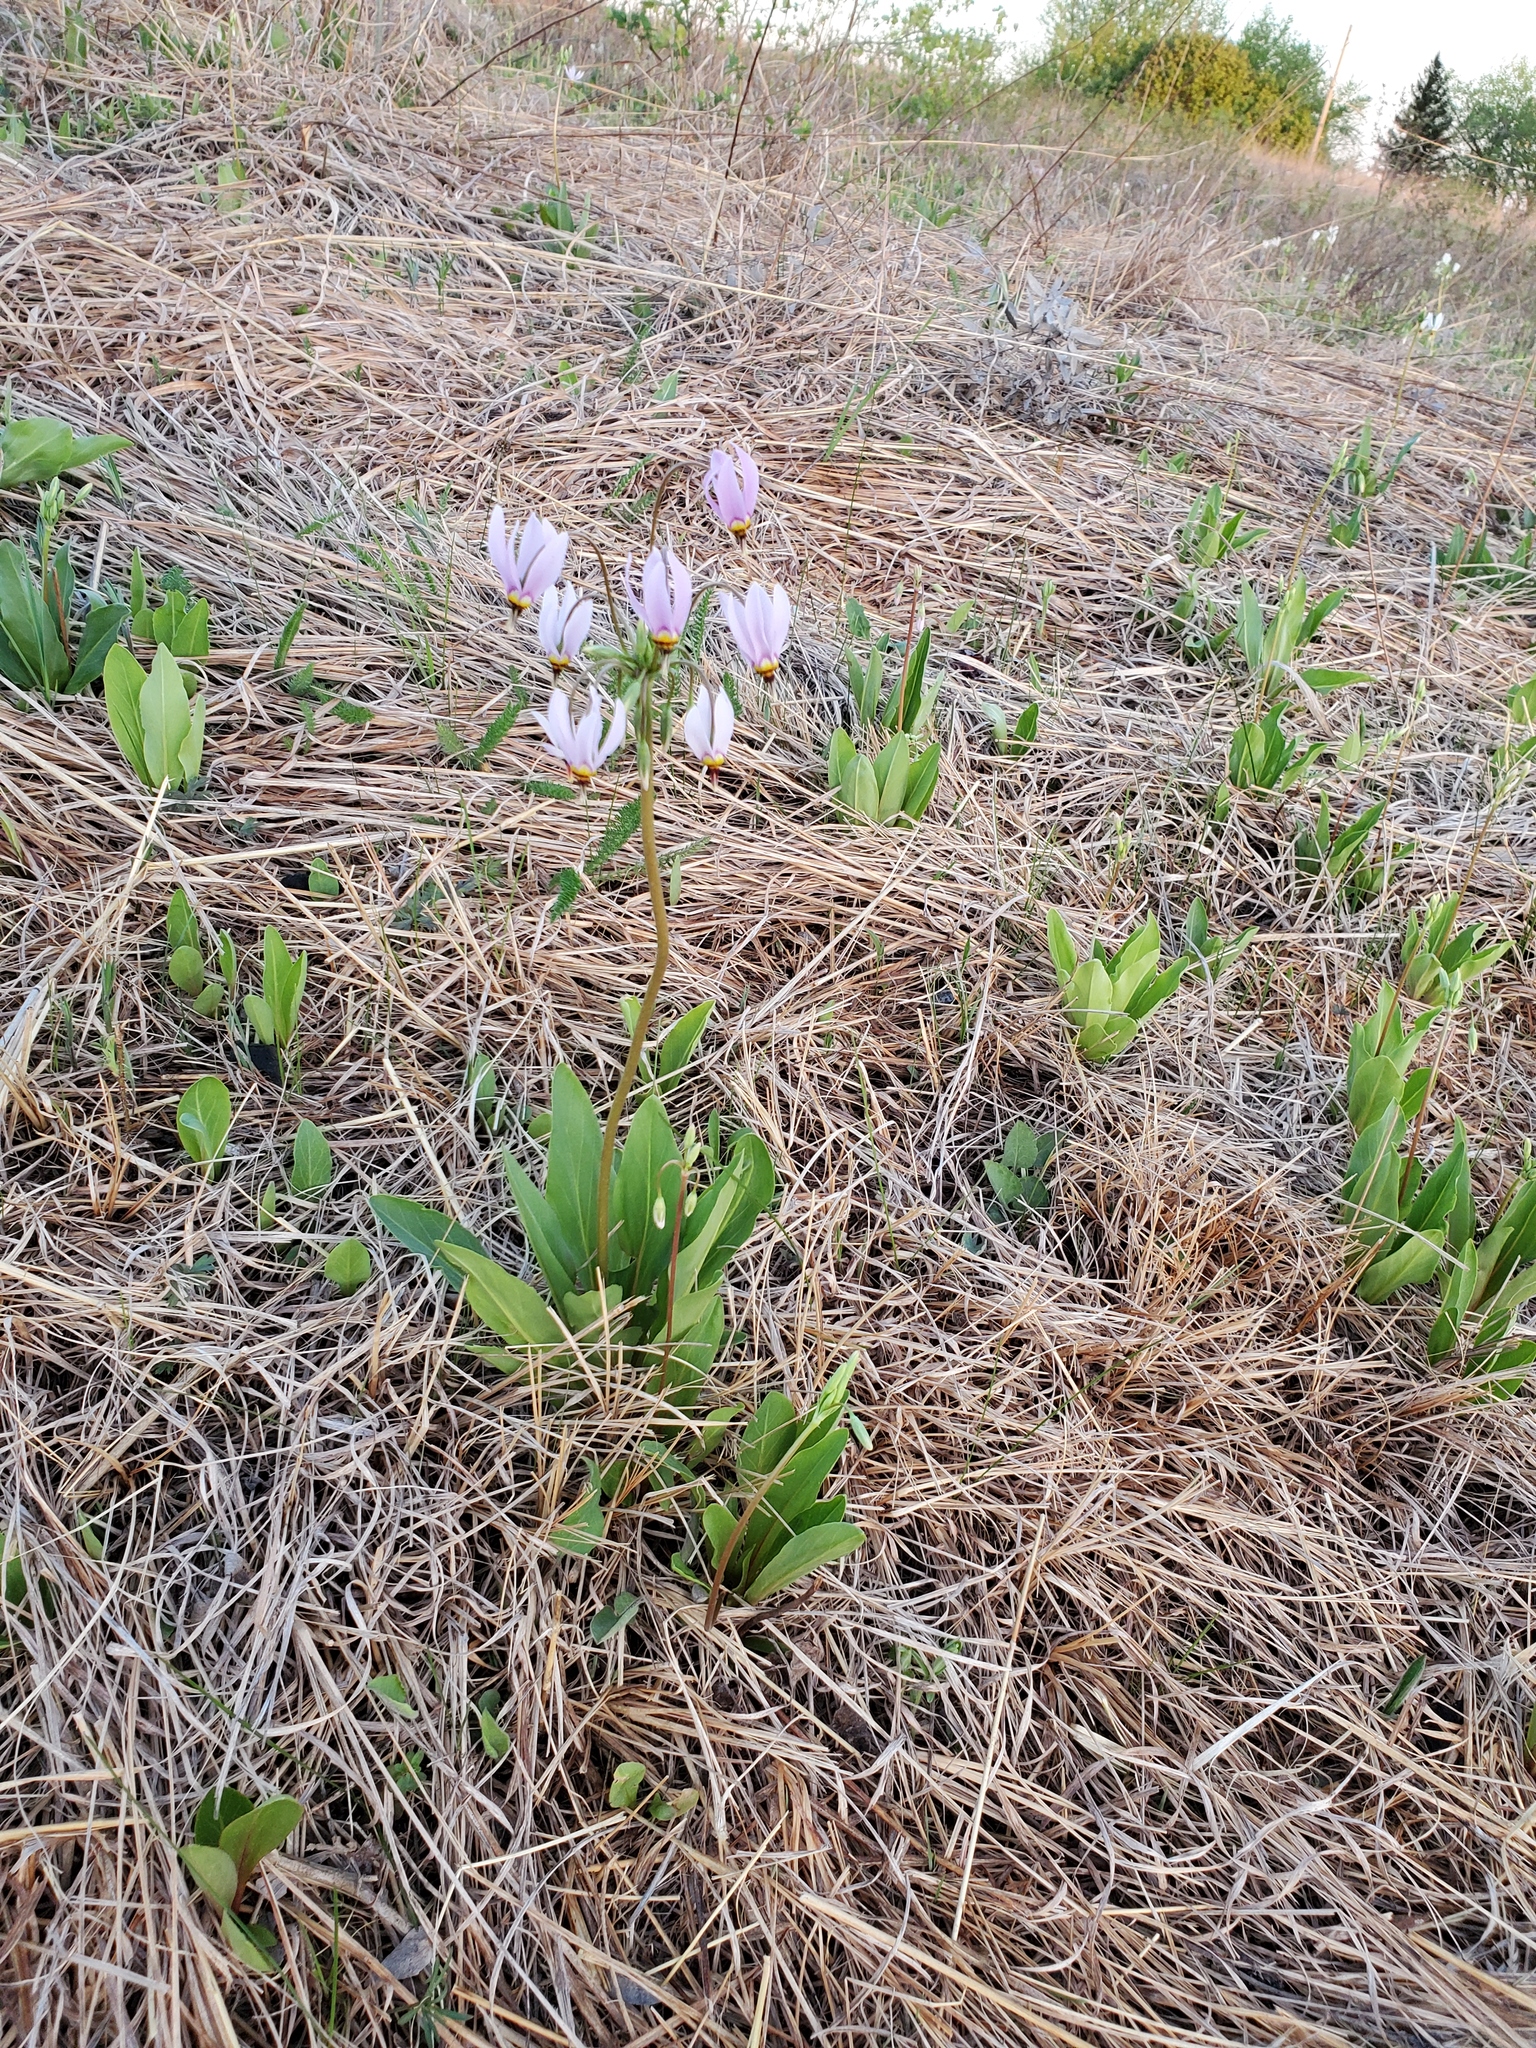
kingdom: Plantae
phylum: Tracheophyta
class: Magnoliopsida
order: Ericales
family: Primulaceae
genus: Dodecatheon
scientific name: Dodecatheon meadia
